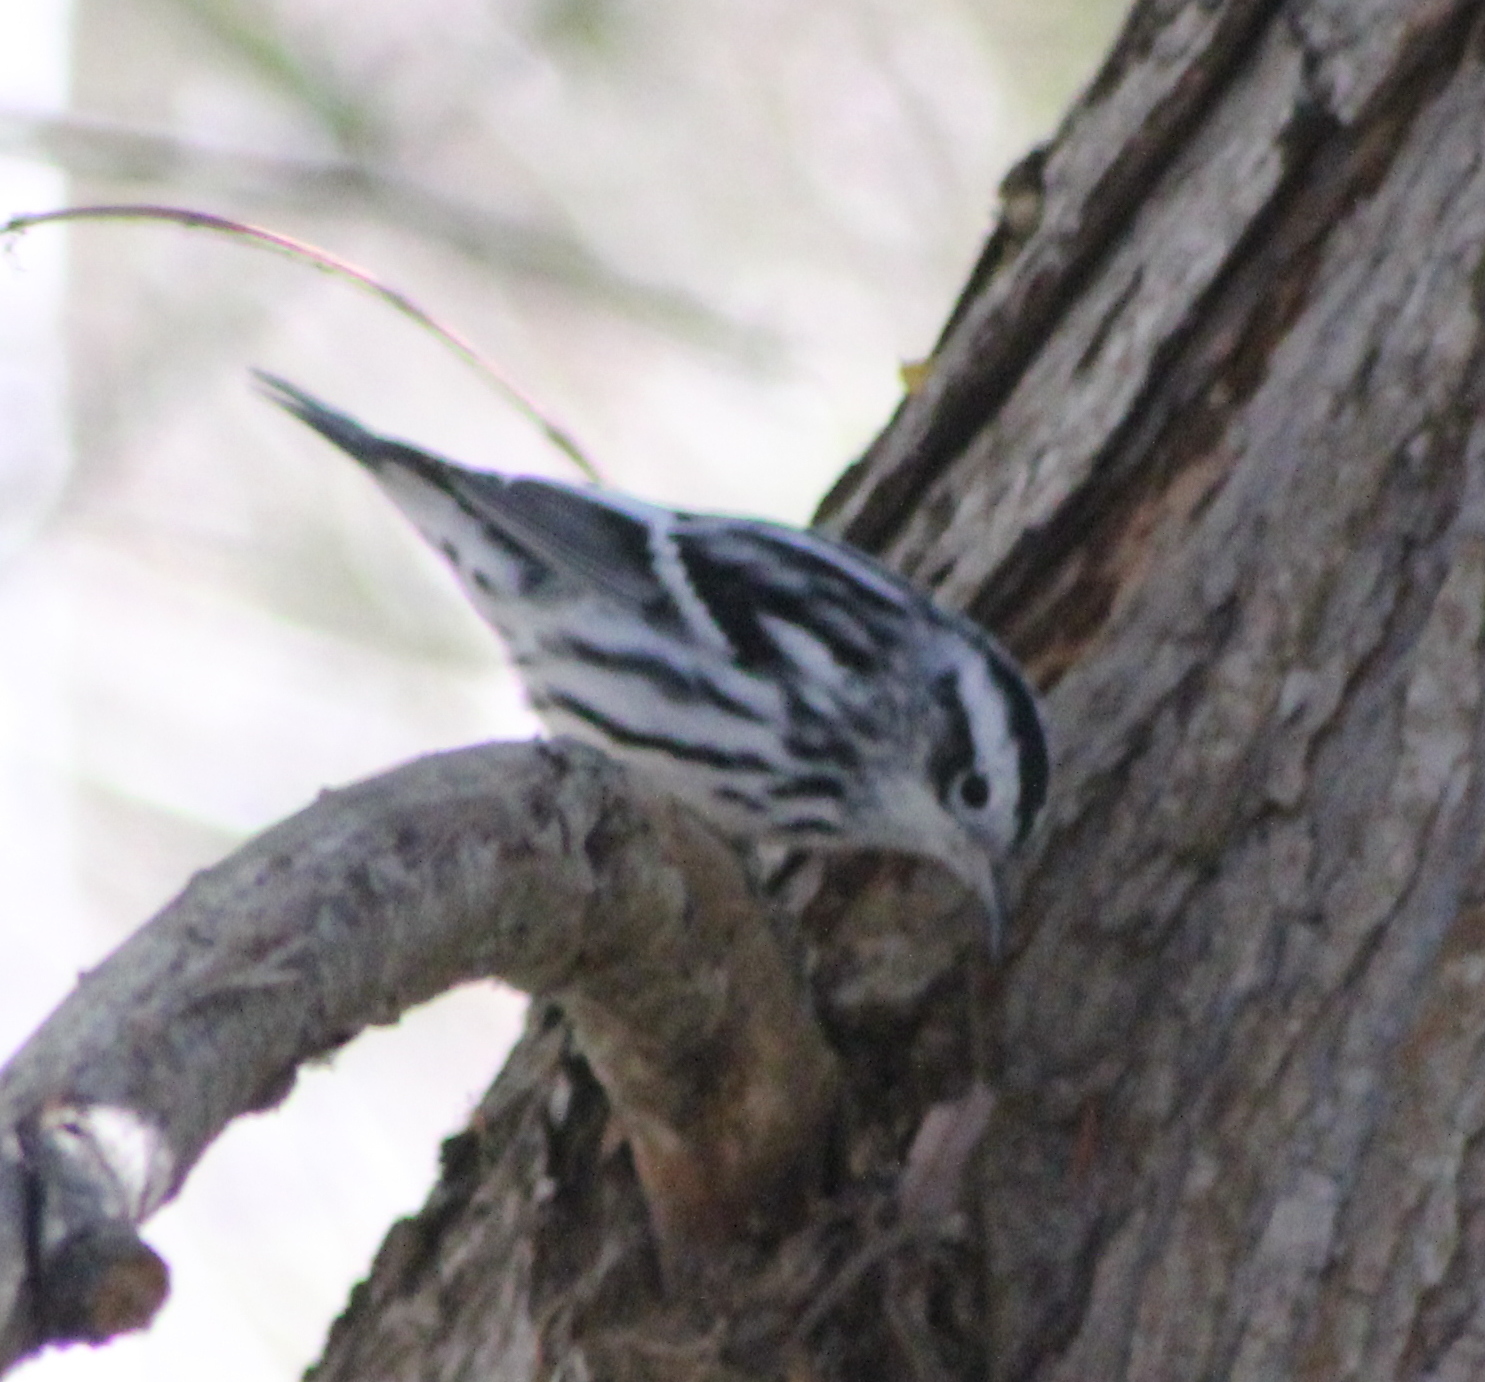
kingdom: Animalia
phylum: Chordata
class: Aves
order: Passeriformes
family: Parulidae
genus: Mniotilta
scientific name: Mniotilta varia
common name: Black-and-white warbler
